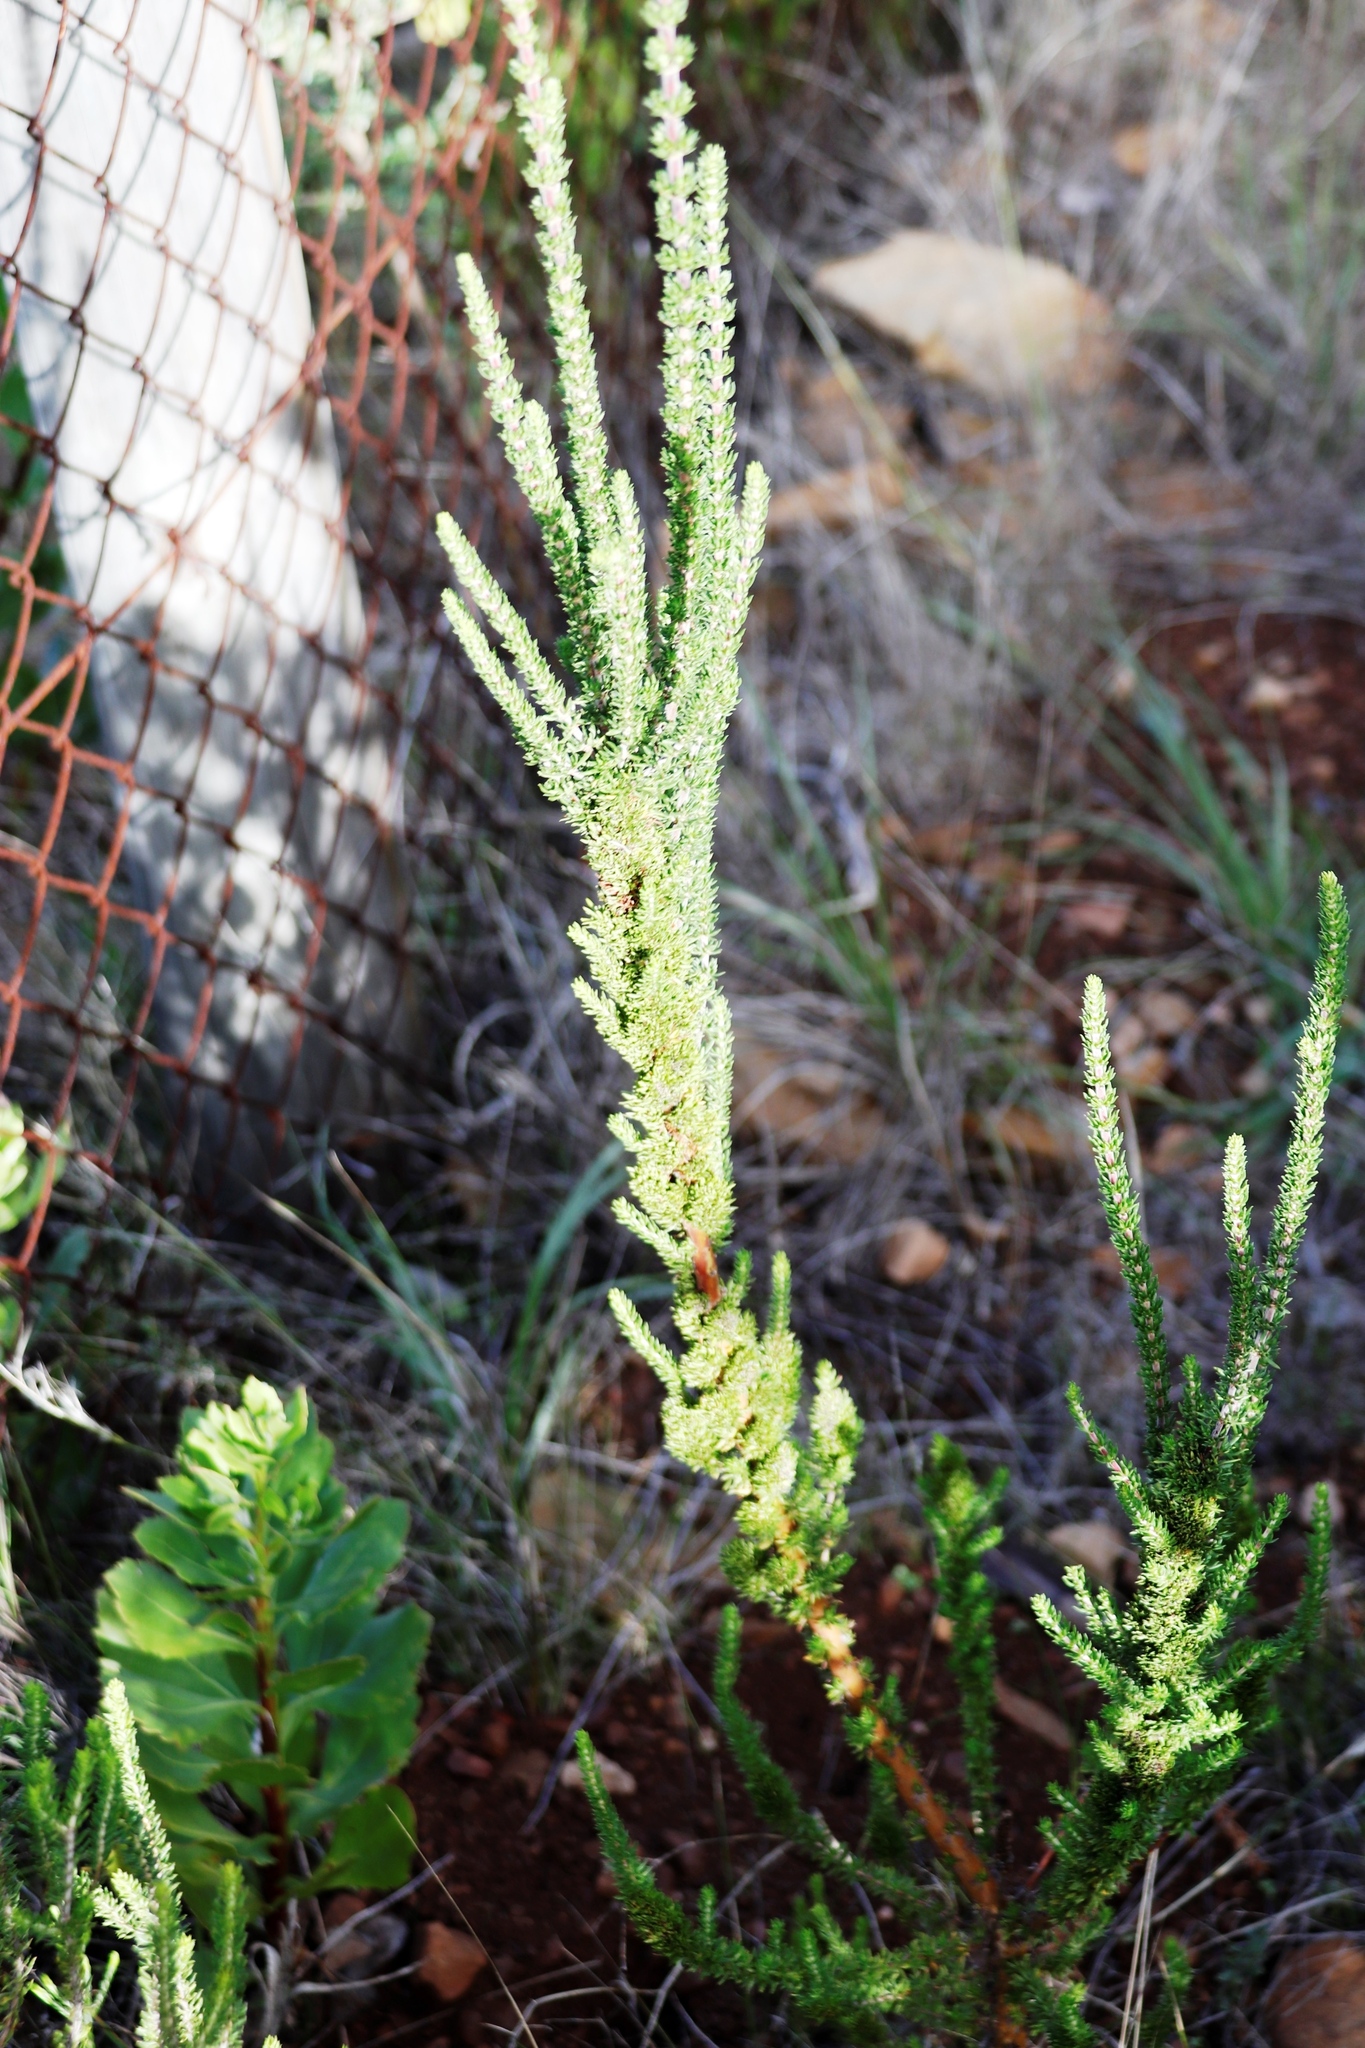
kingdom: Plantae
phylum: Tracheophyta
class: Magnoliopsida
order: Gentianales
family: Rubiaceae
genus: Anthospermum
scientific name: Anthospermum aethiopicum
